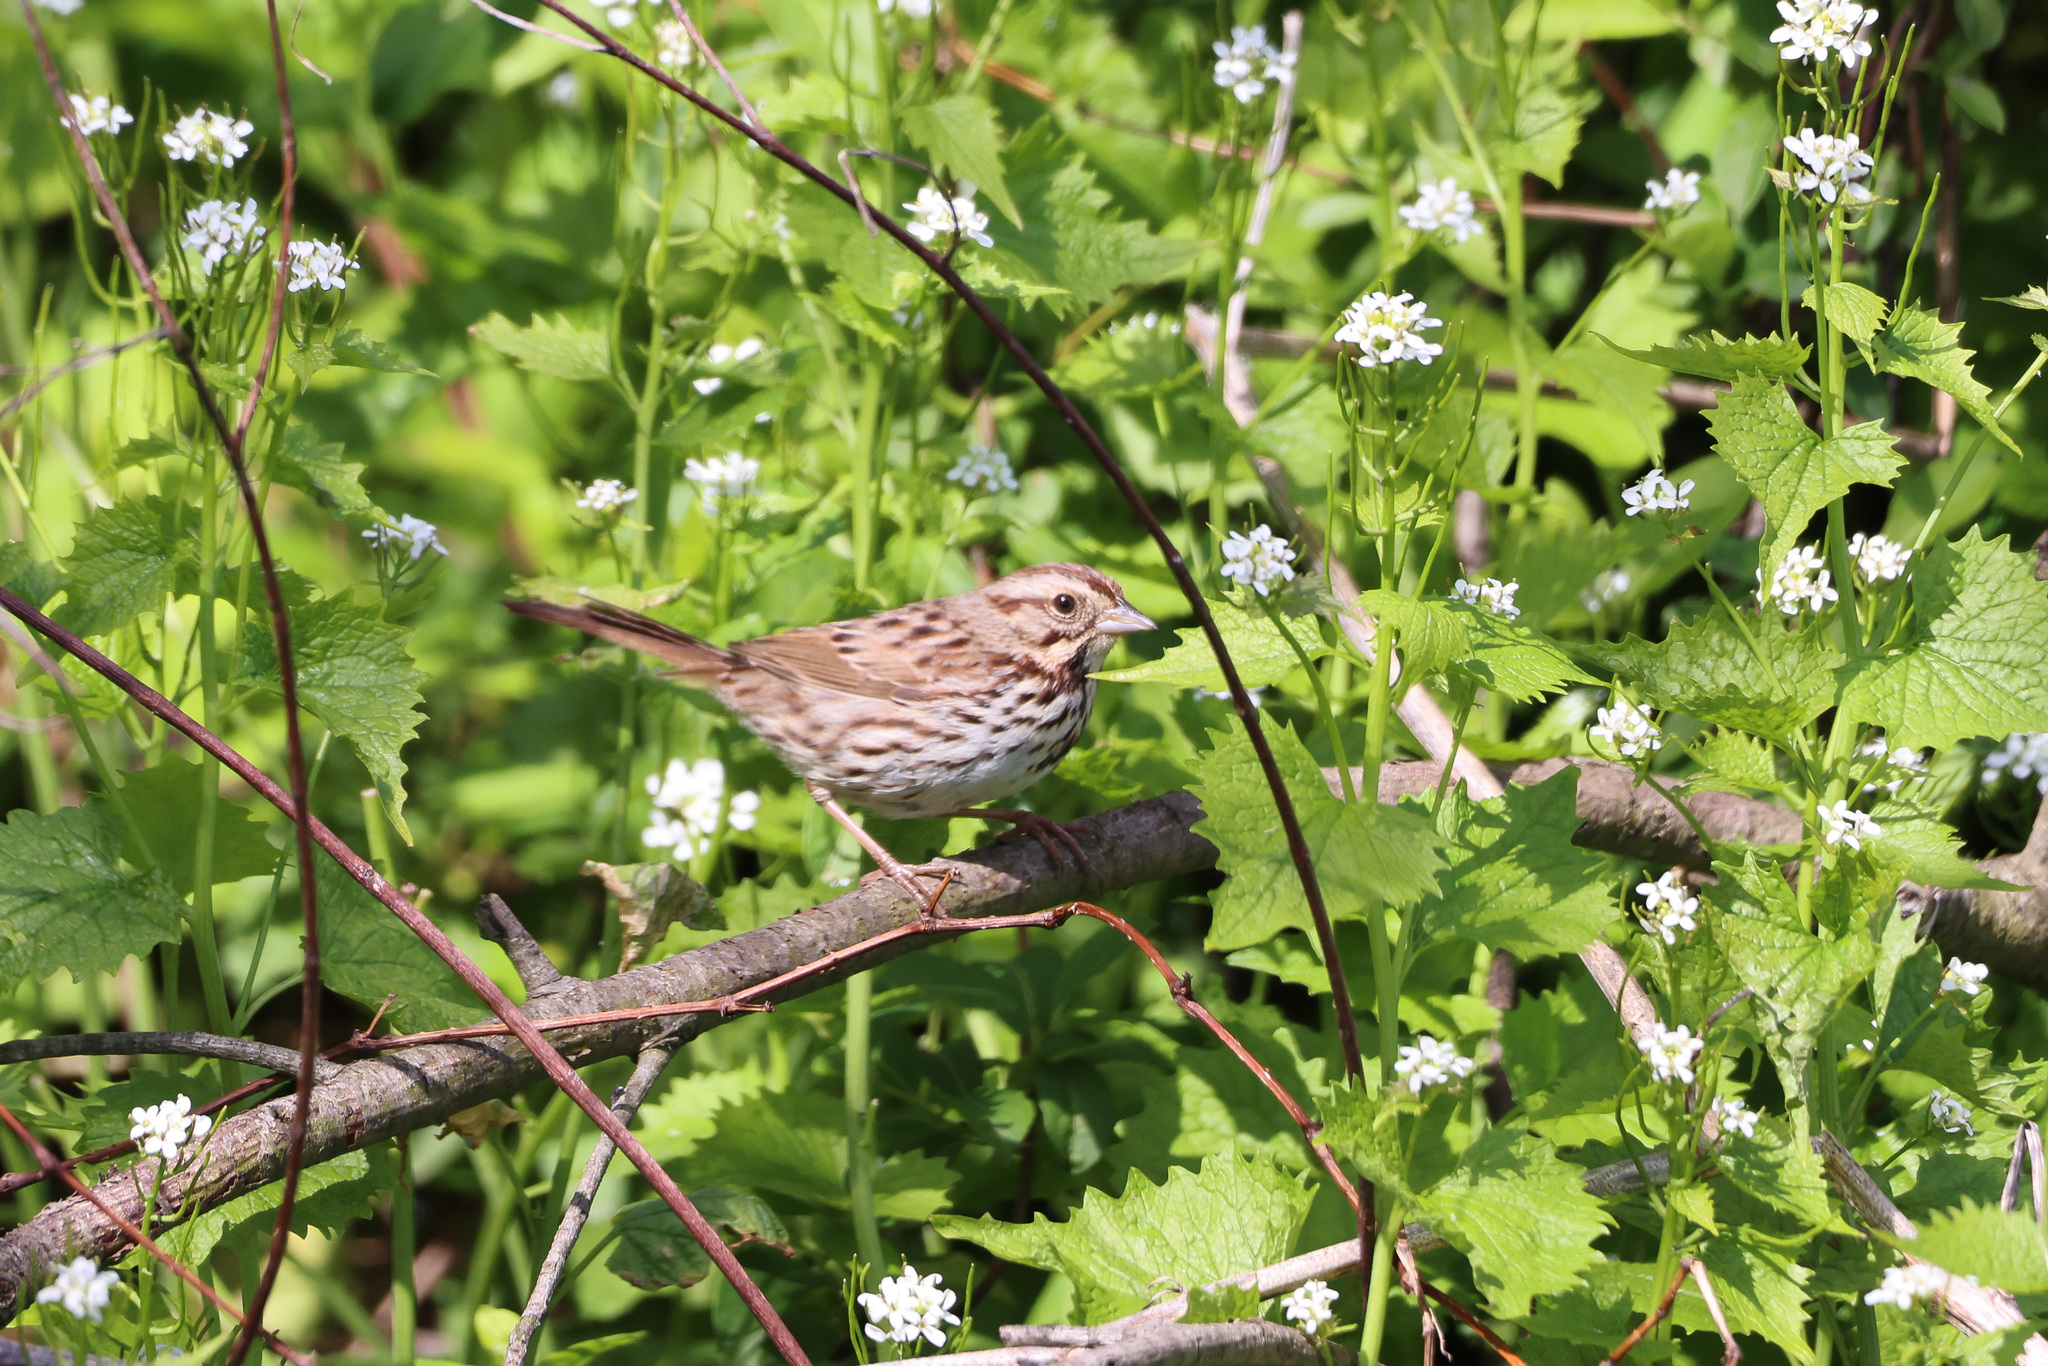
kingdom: Animalia
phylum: Chordata
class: Aves
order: Passeriformes
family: Passerellidae
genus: Melospiza
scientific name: Melospiza melodia
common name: Song sparrow
